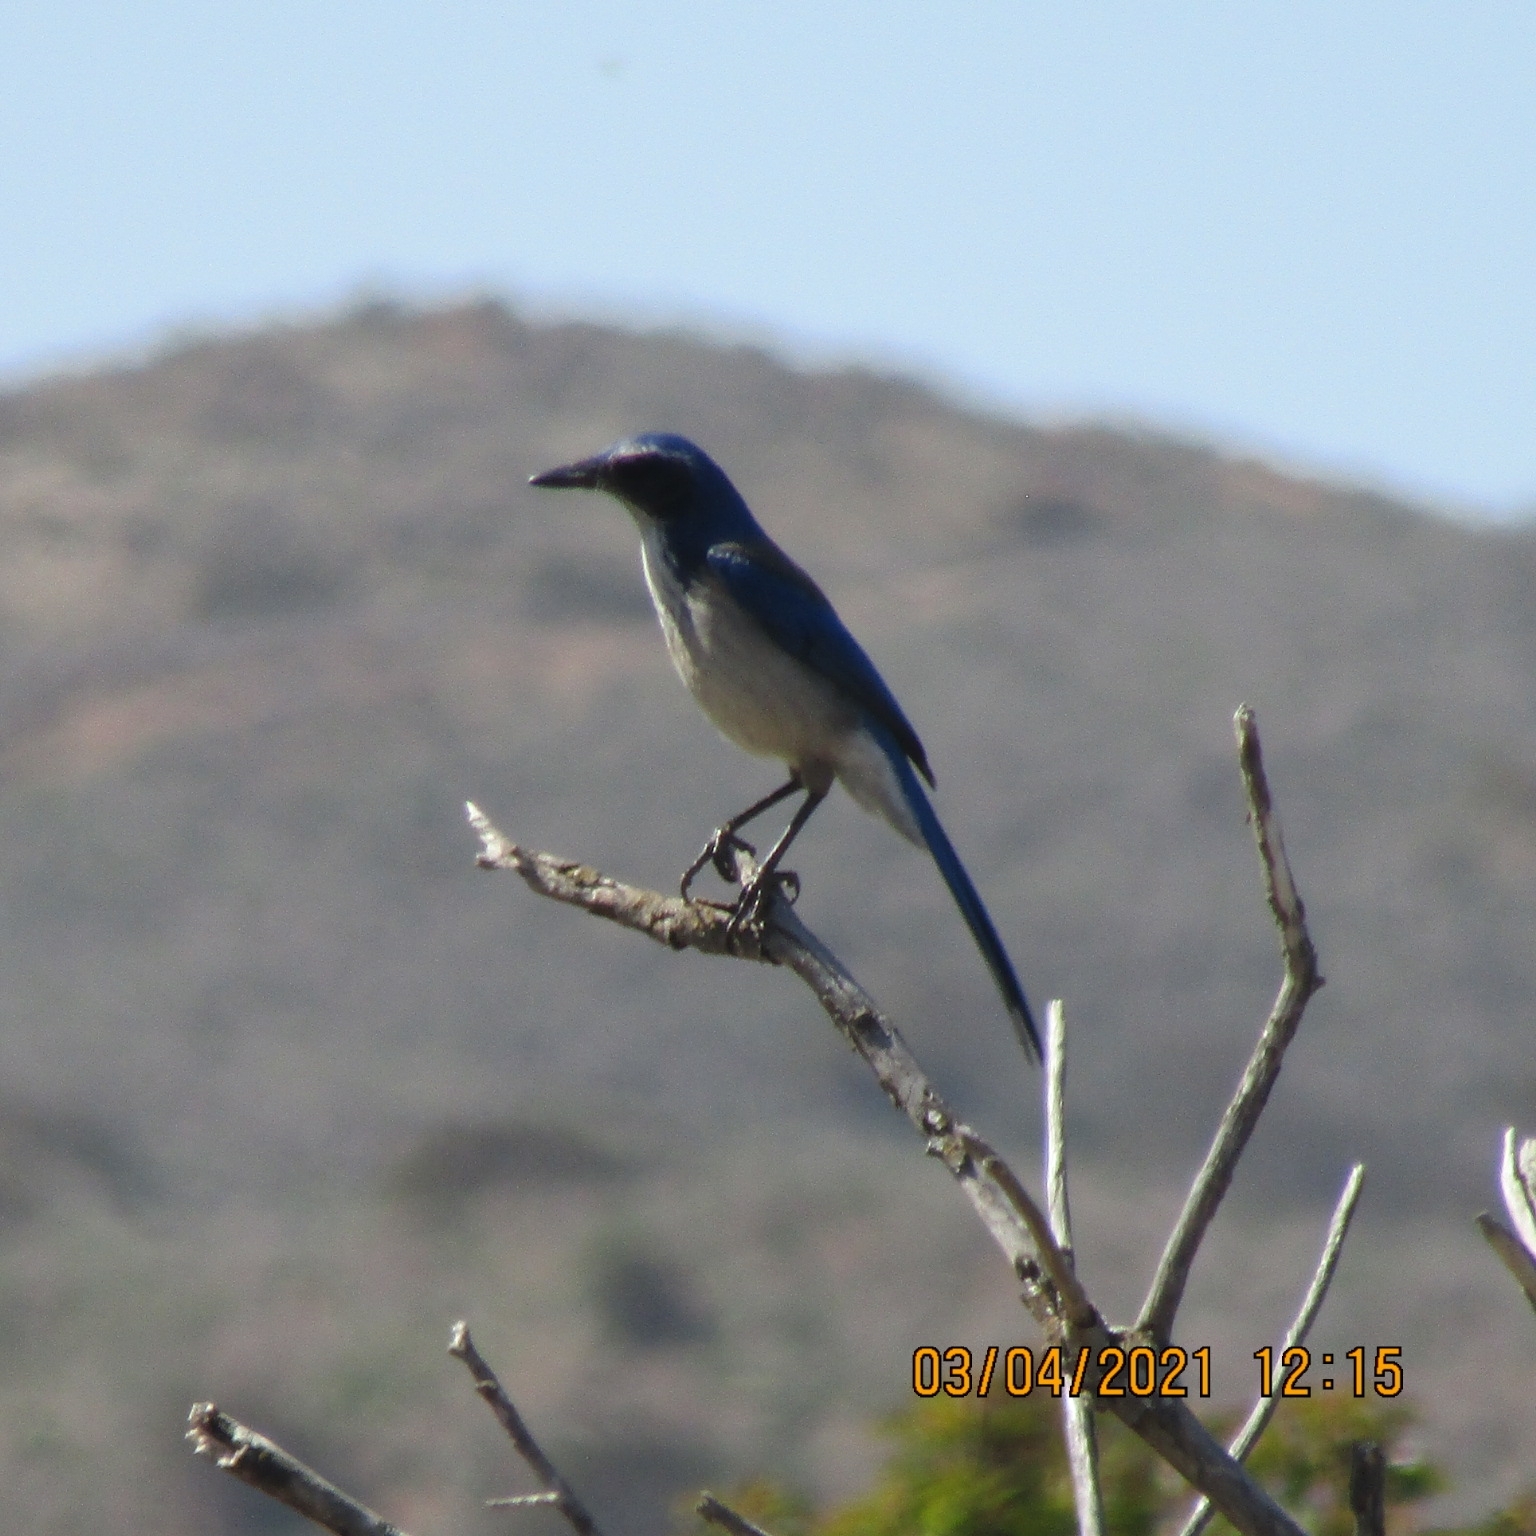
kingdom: Animalia
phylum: Chordata
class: Aves
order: Passeriformes
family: Corvidae
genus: Aphelocoma
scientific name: Aphelocoma californica
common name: California scrub-jay
